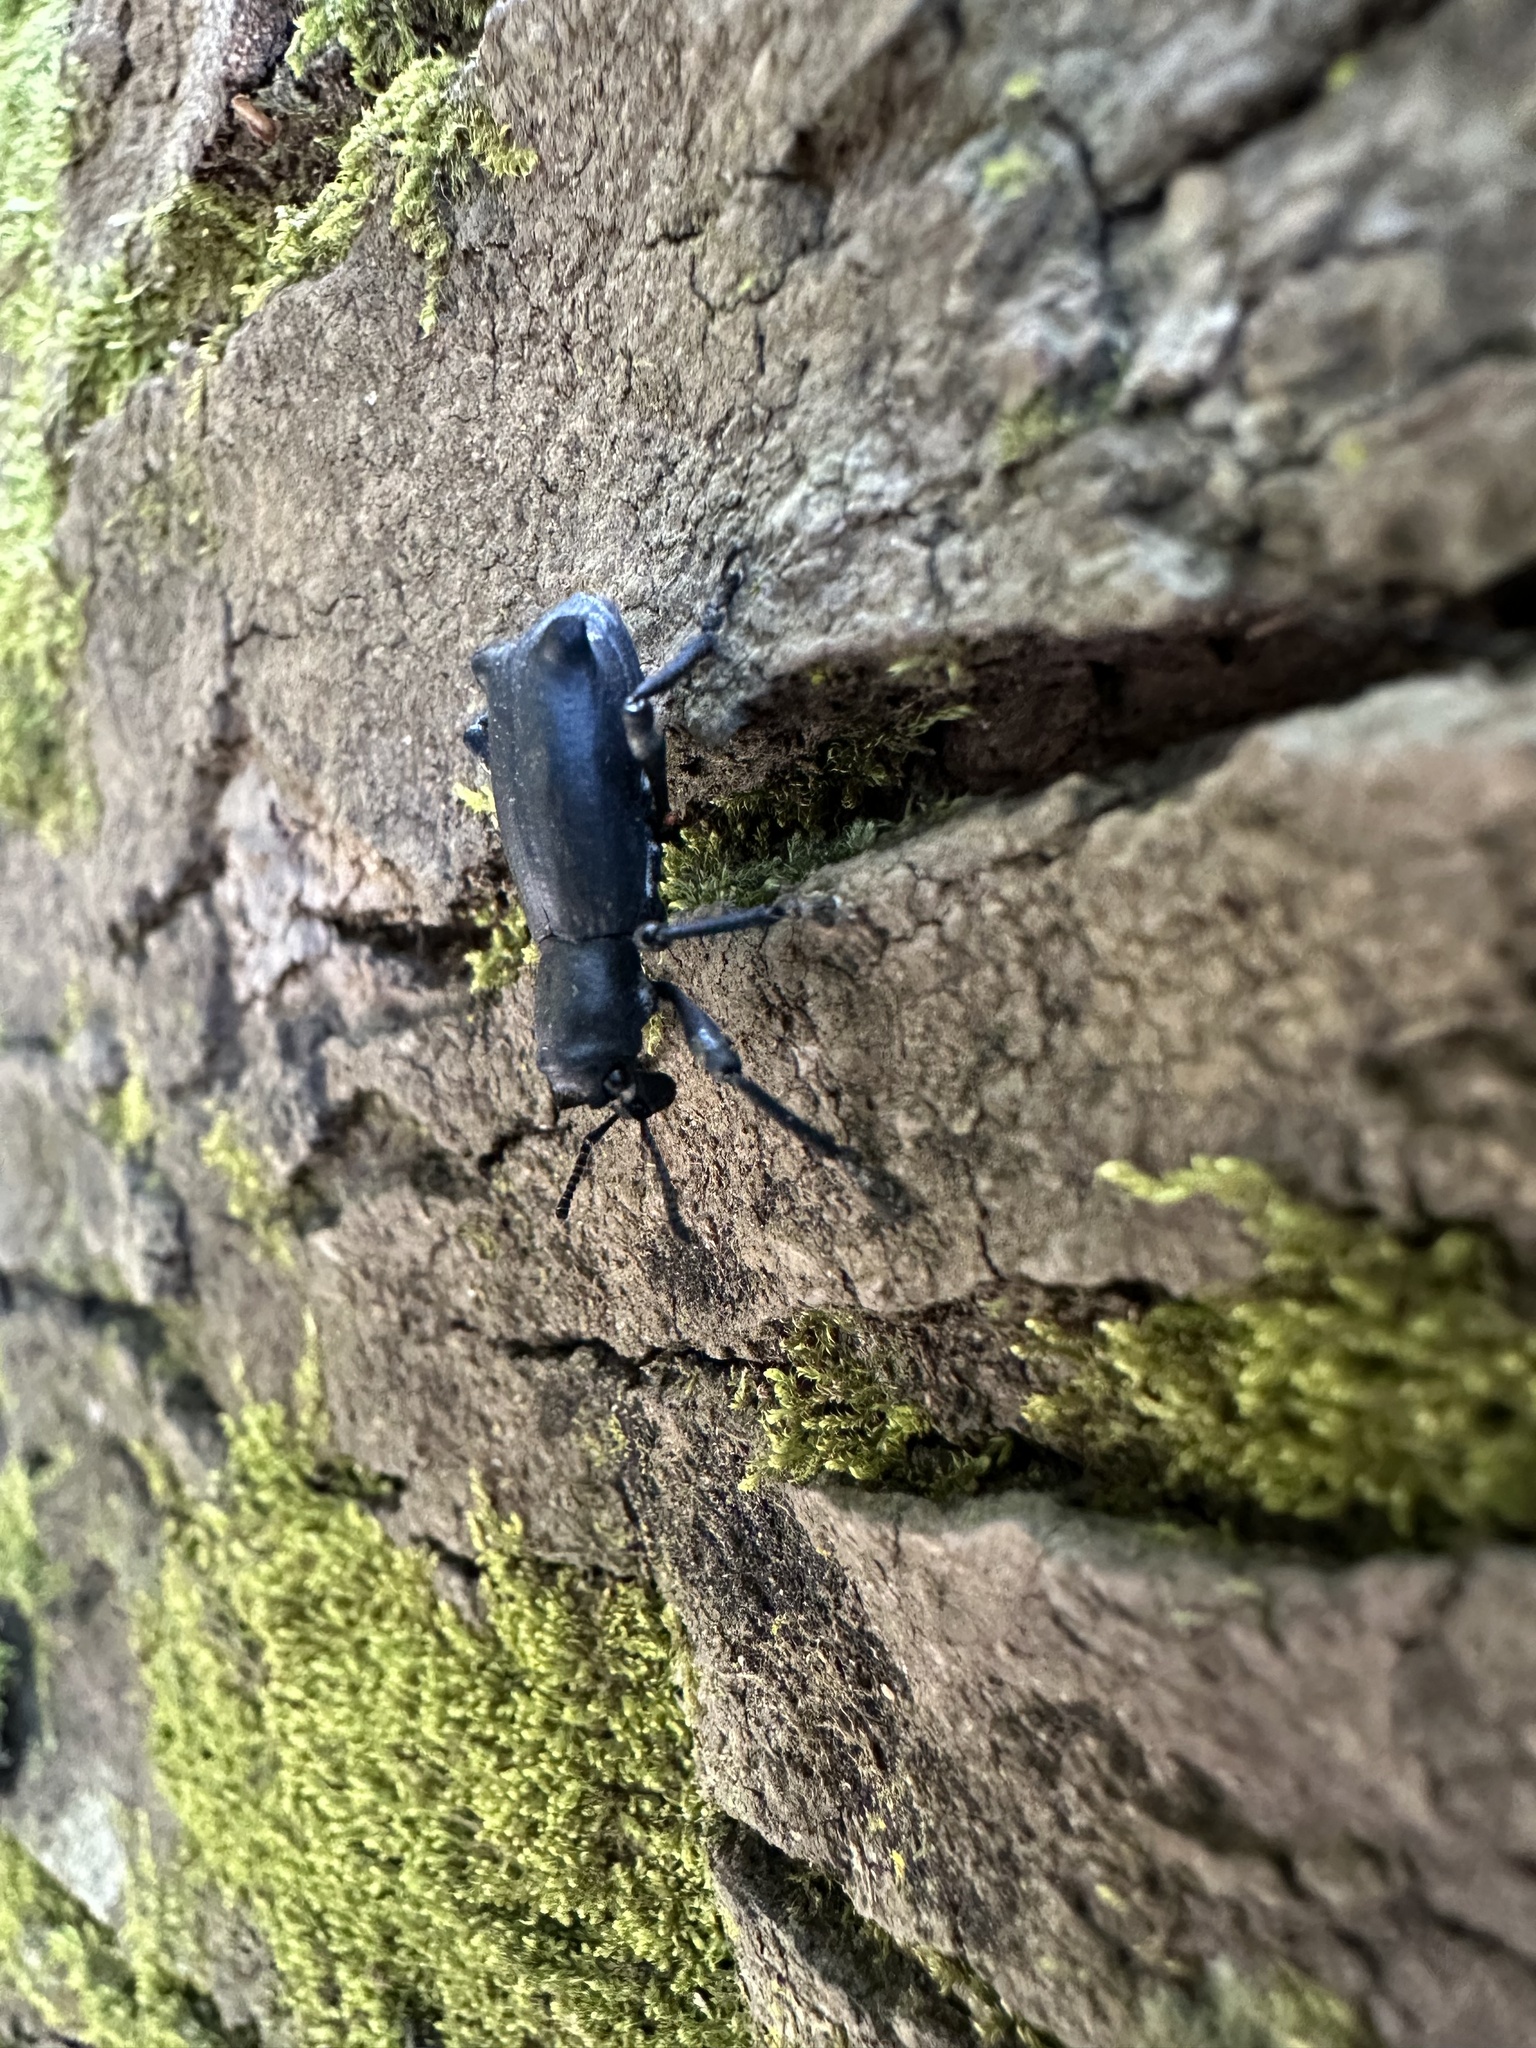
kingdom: Animalia
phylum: Arthropoda
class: Insecta
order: Coleoptera
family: Curculionidae
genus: Aegorhinus
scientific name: Aegorhinus
